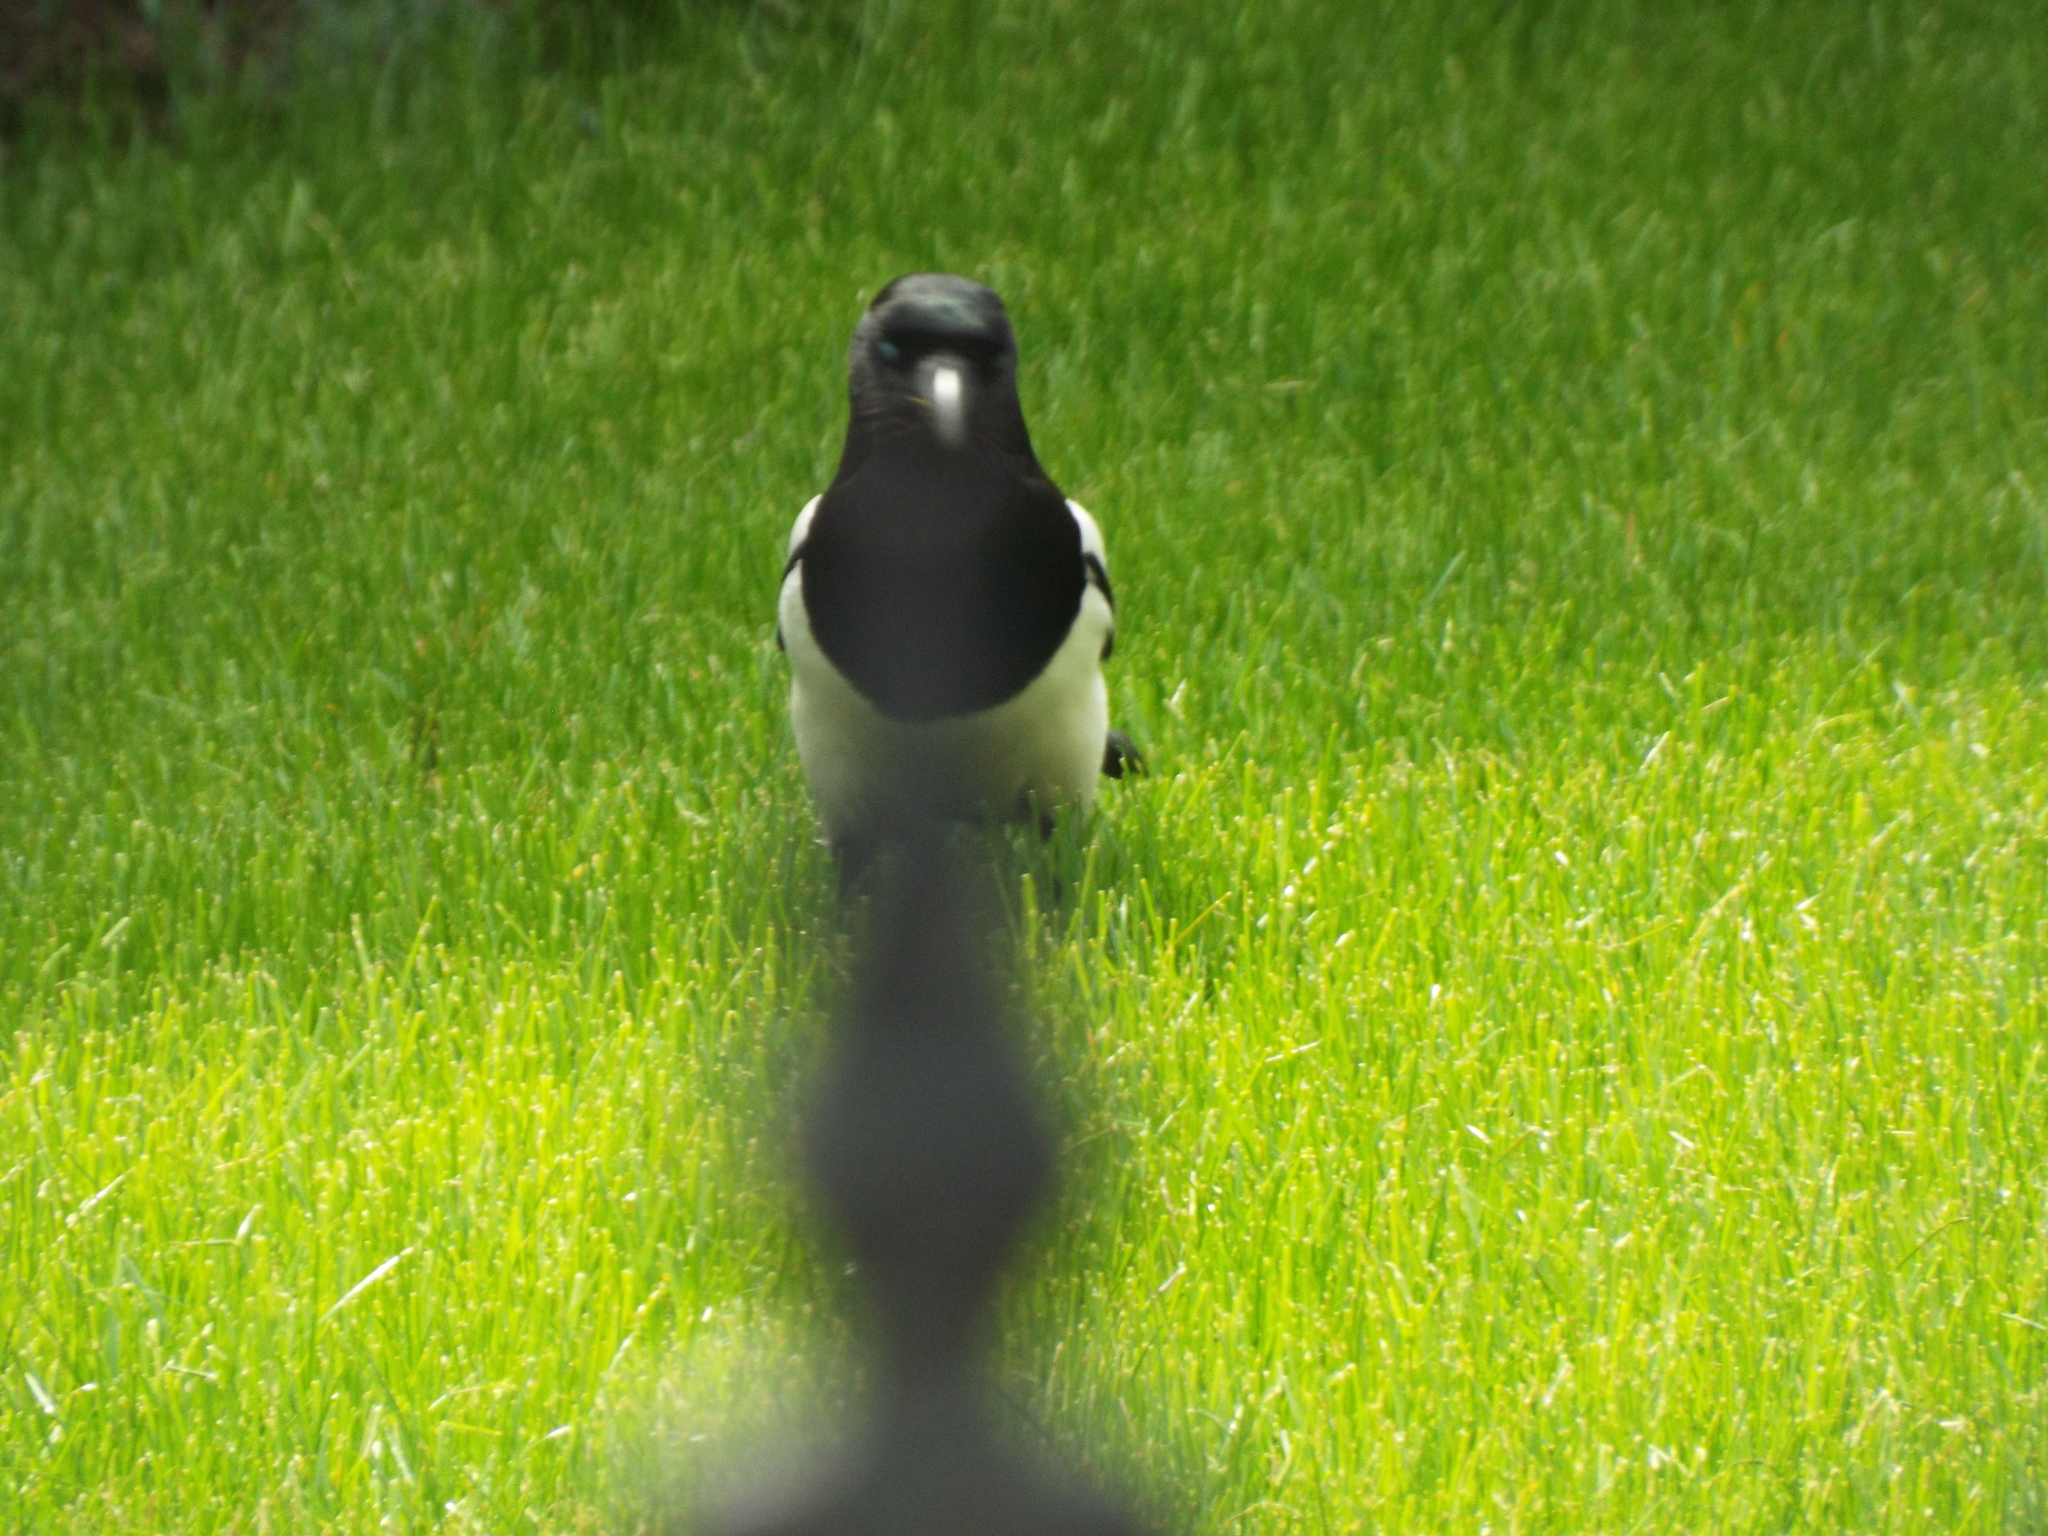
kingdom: Animalia
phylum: Chordata
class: Aves
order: Passeriformes
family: Corvidae
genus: Pica
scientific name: Pica pica
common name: Eurasian magpie
